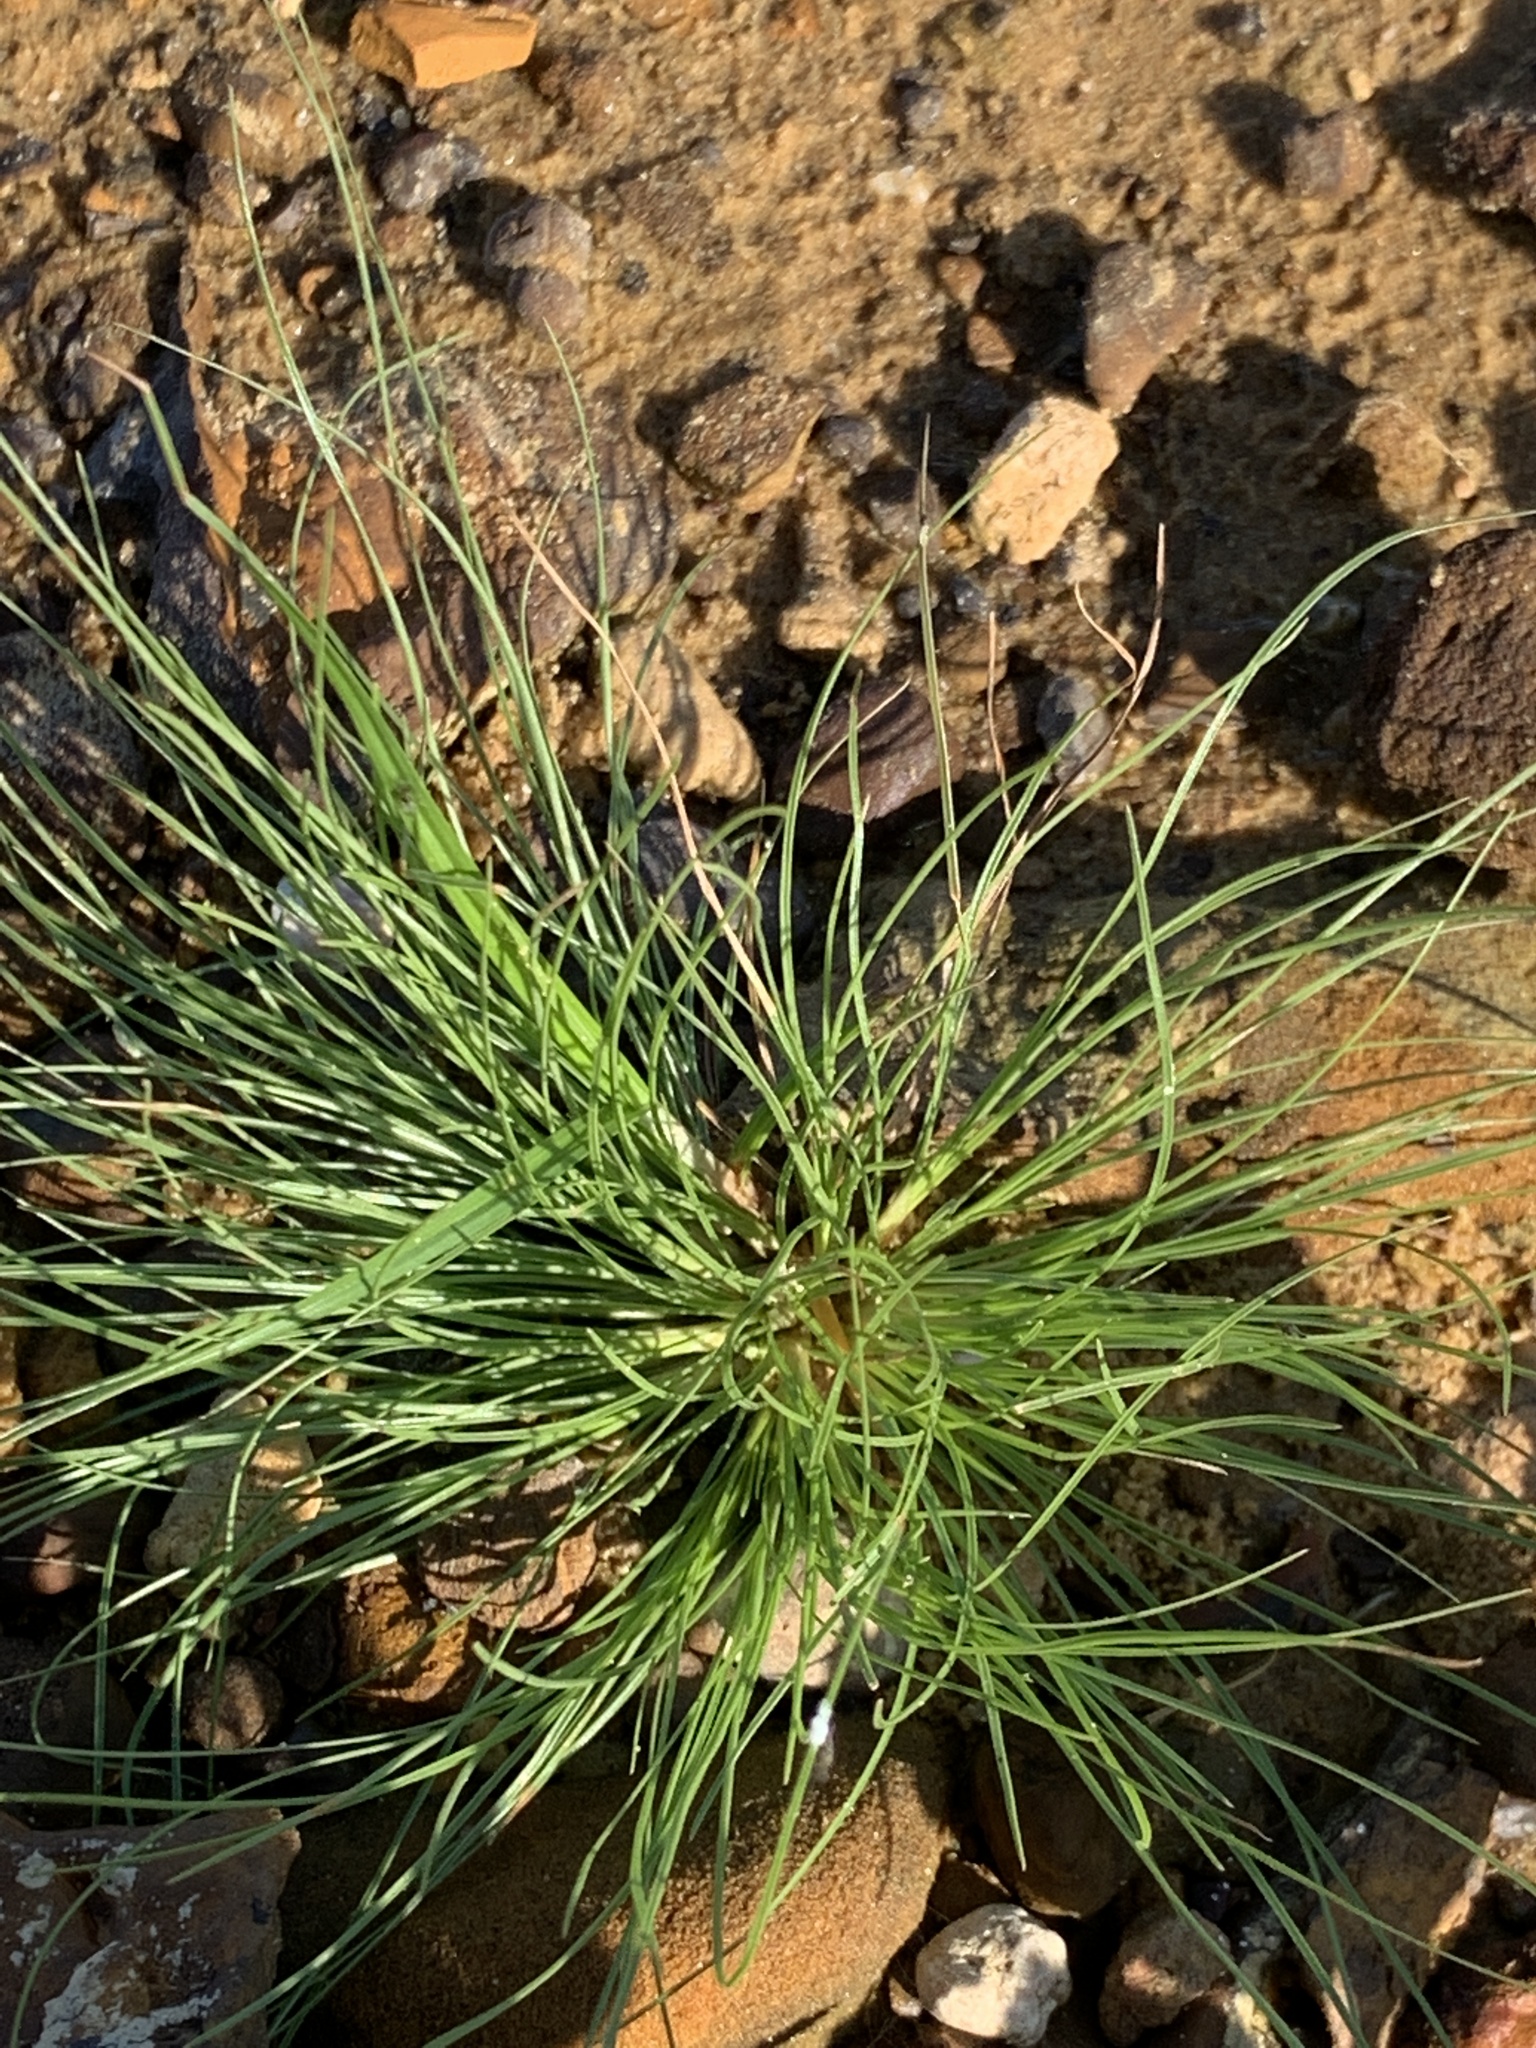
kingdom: Plantae
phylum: Tracheophyta
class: Liliopsida
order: Poales
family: Cyperaceae
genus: Fimbristylis
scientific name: Fimbristylis vahlii
